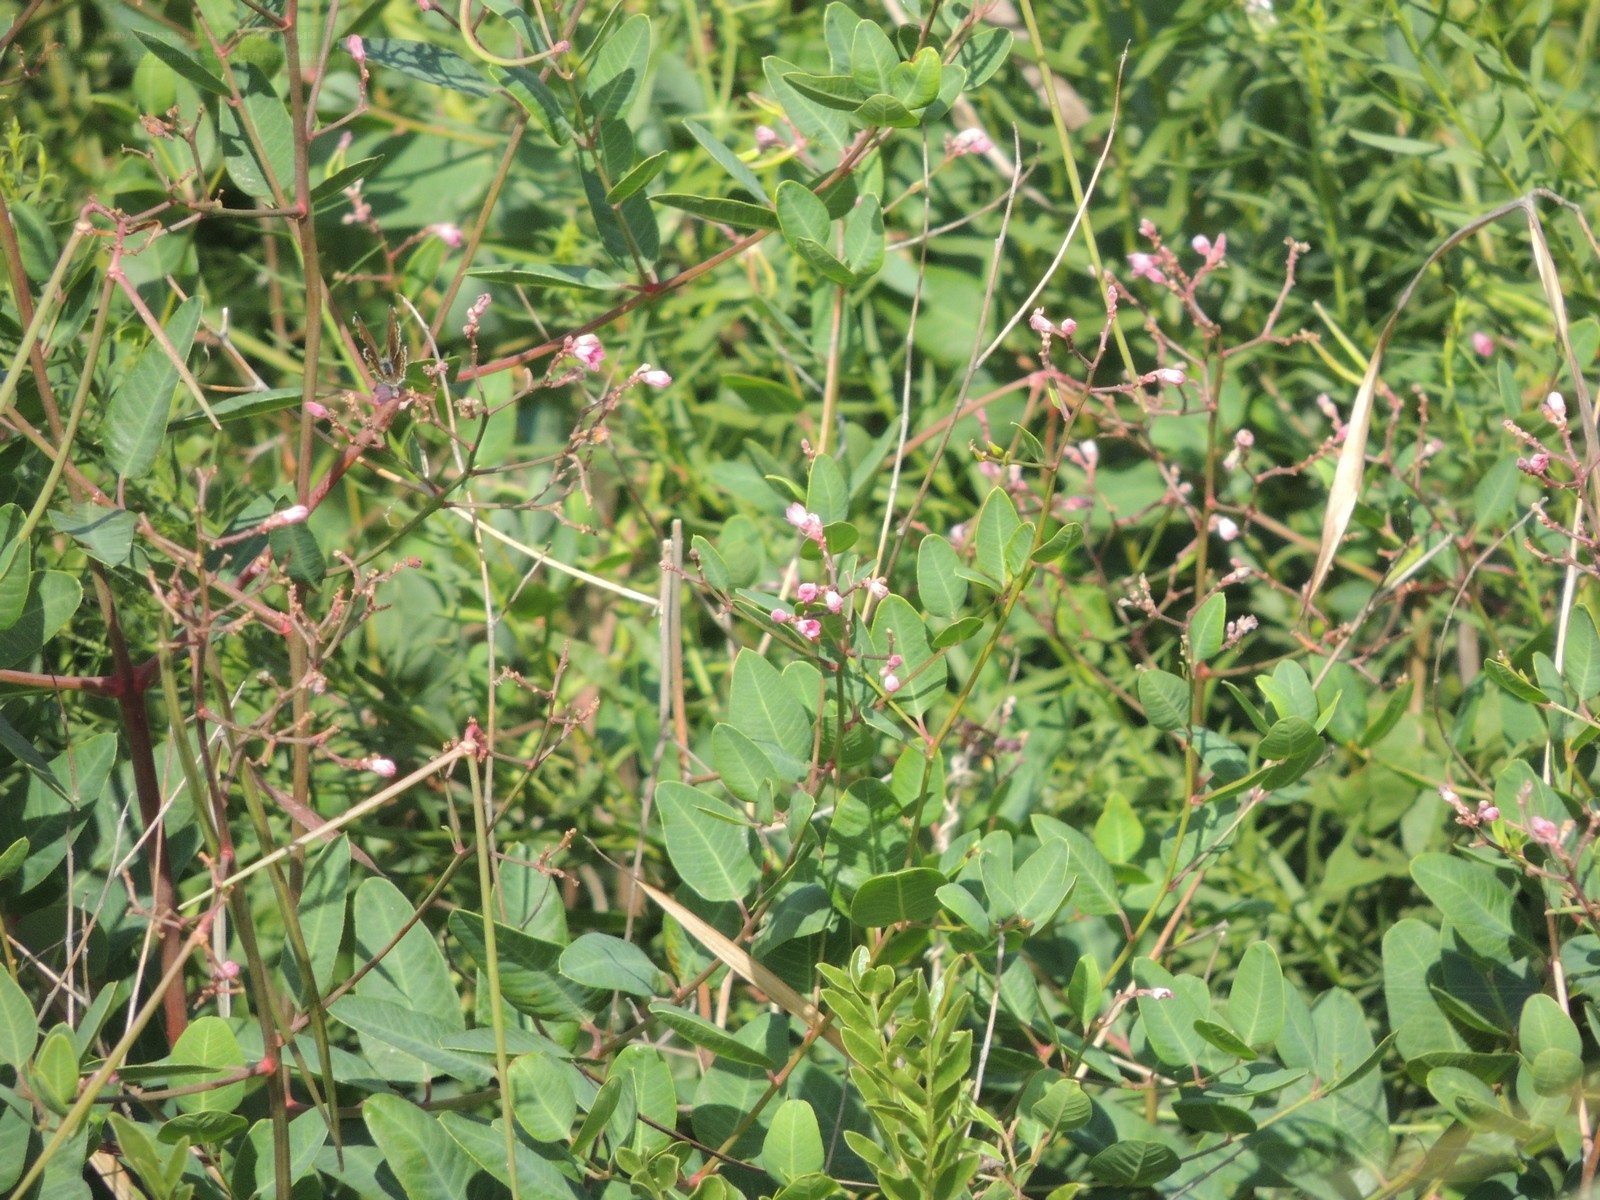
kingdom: Plantae
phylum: Tracheophyta
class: Magnoliopsida
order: Gentianales
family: Apocynaceae
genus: Poacynum
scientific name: Poacynum venetum
